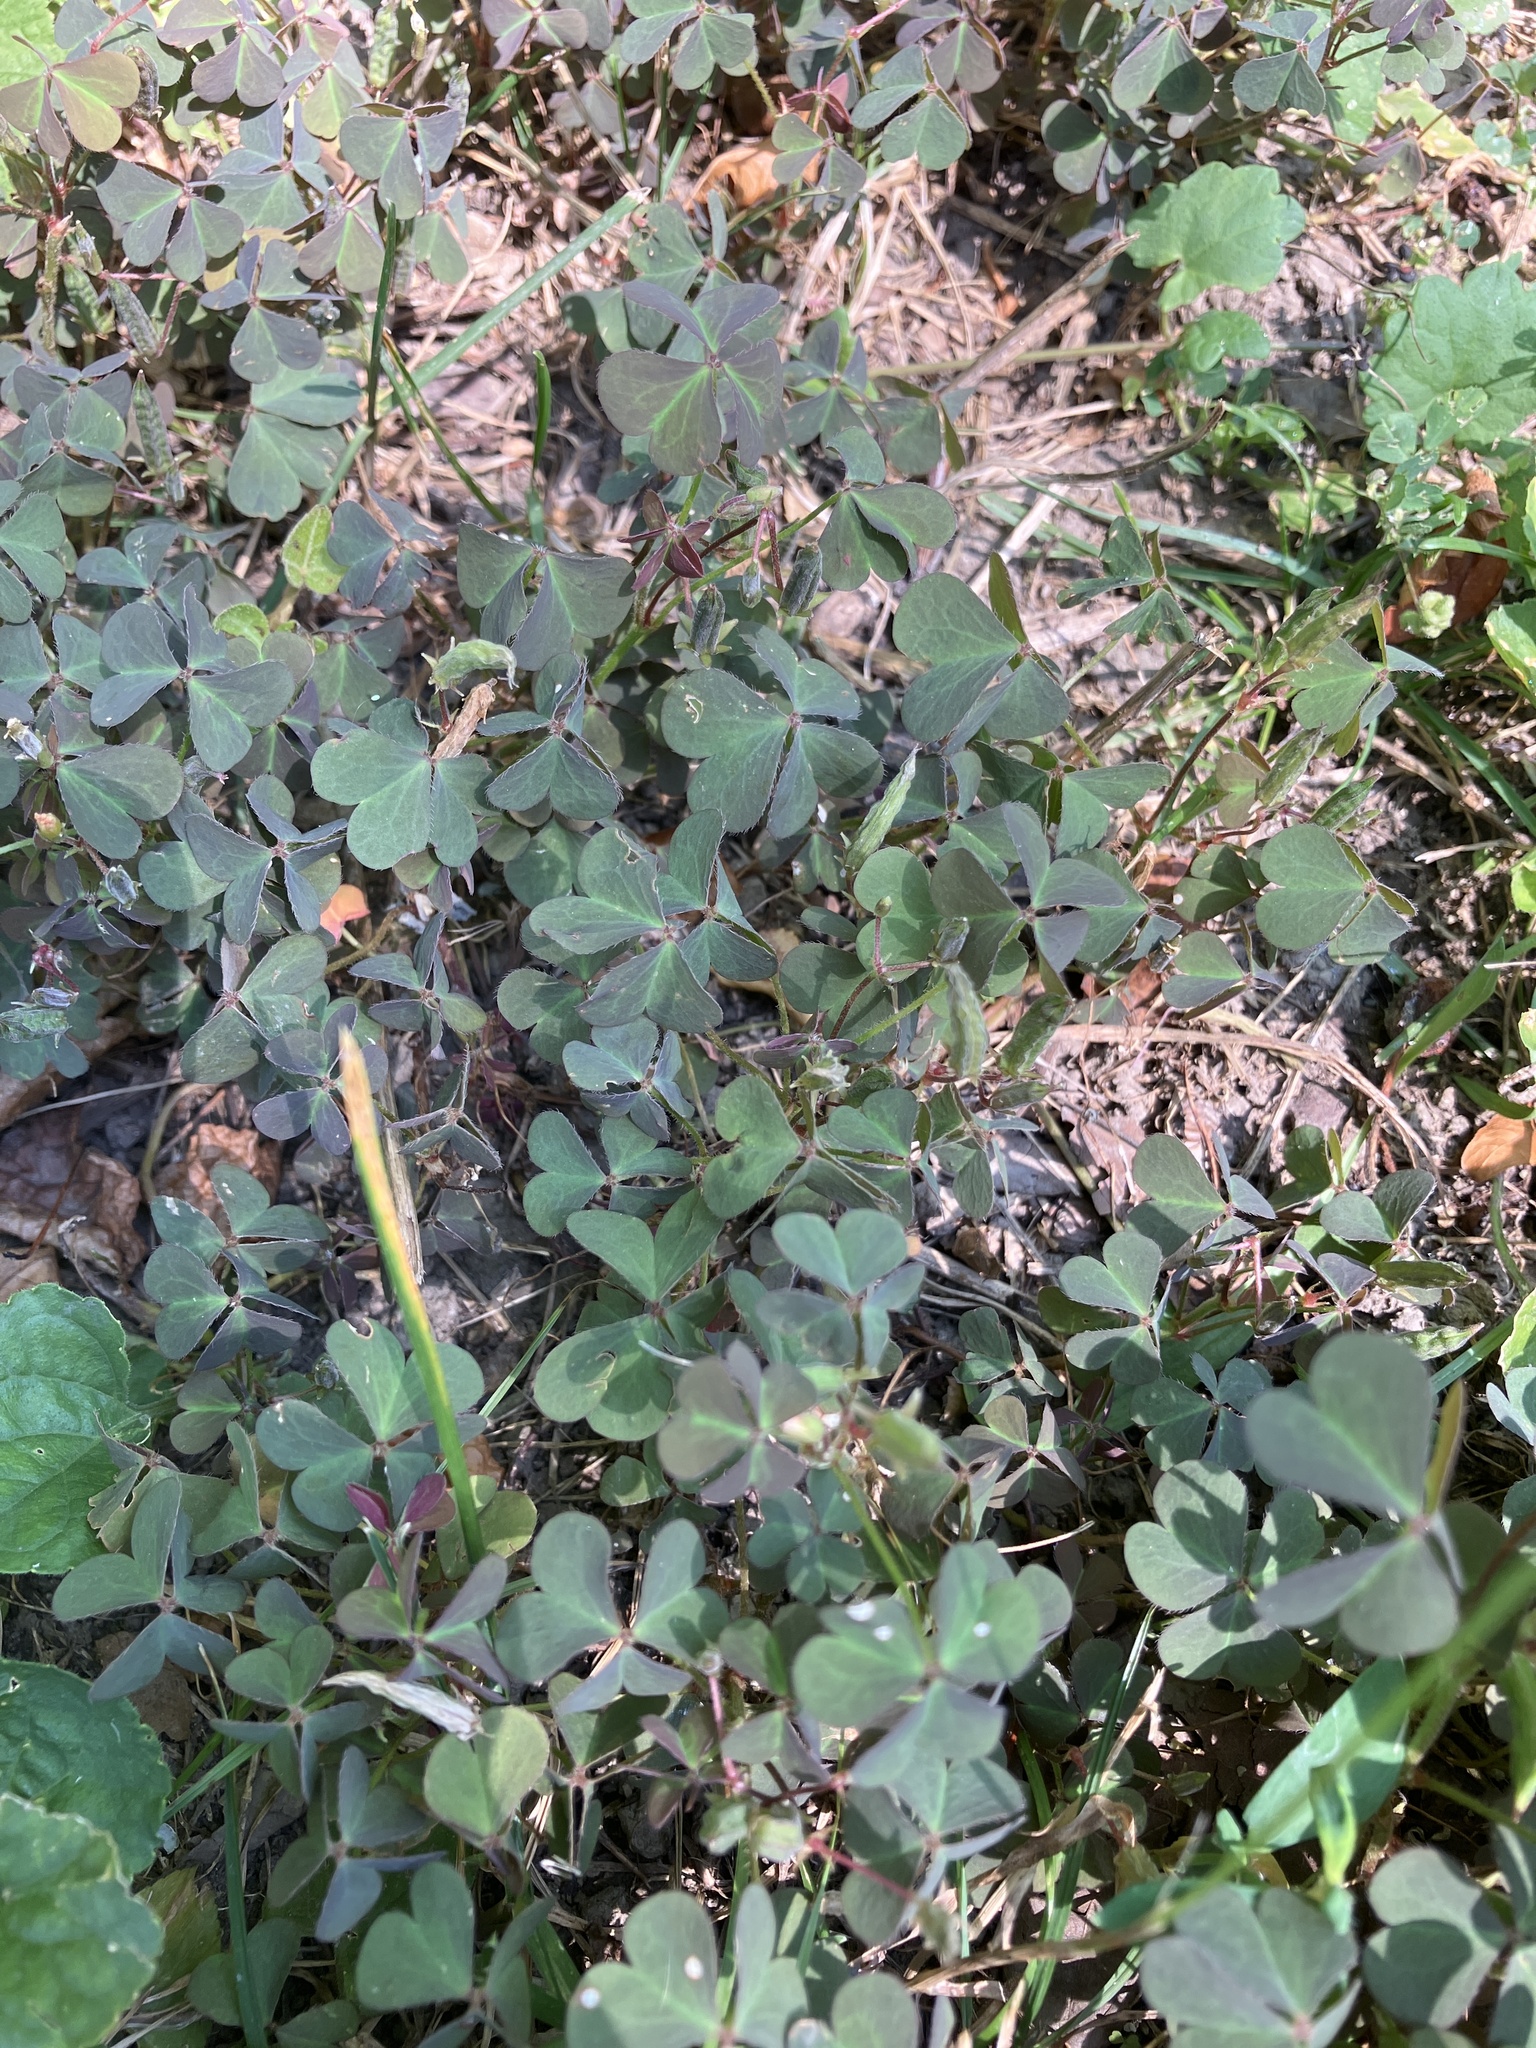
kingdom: Plantae
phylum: Tracheophyta
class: Magnoliopsida
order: Oxalidales
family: Oxalidaceae
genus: Oxalis
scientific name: Oxalis corniculata
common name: Procumbent yellow-sorrel
